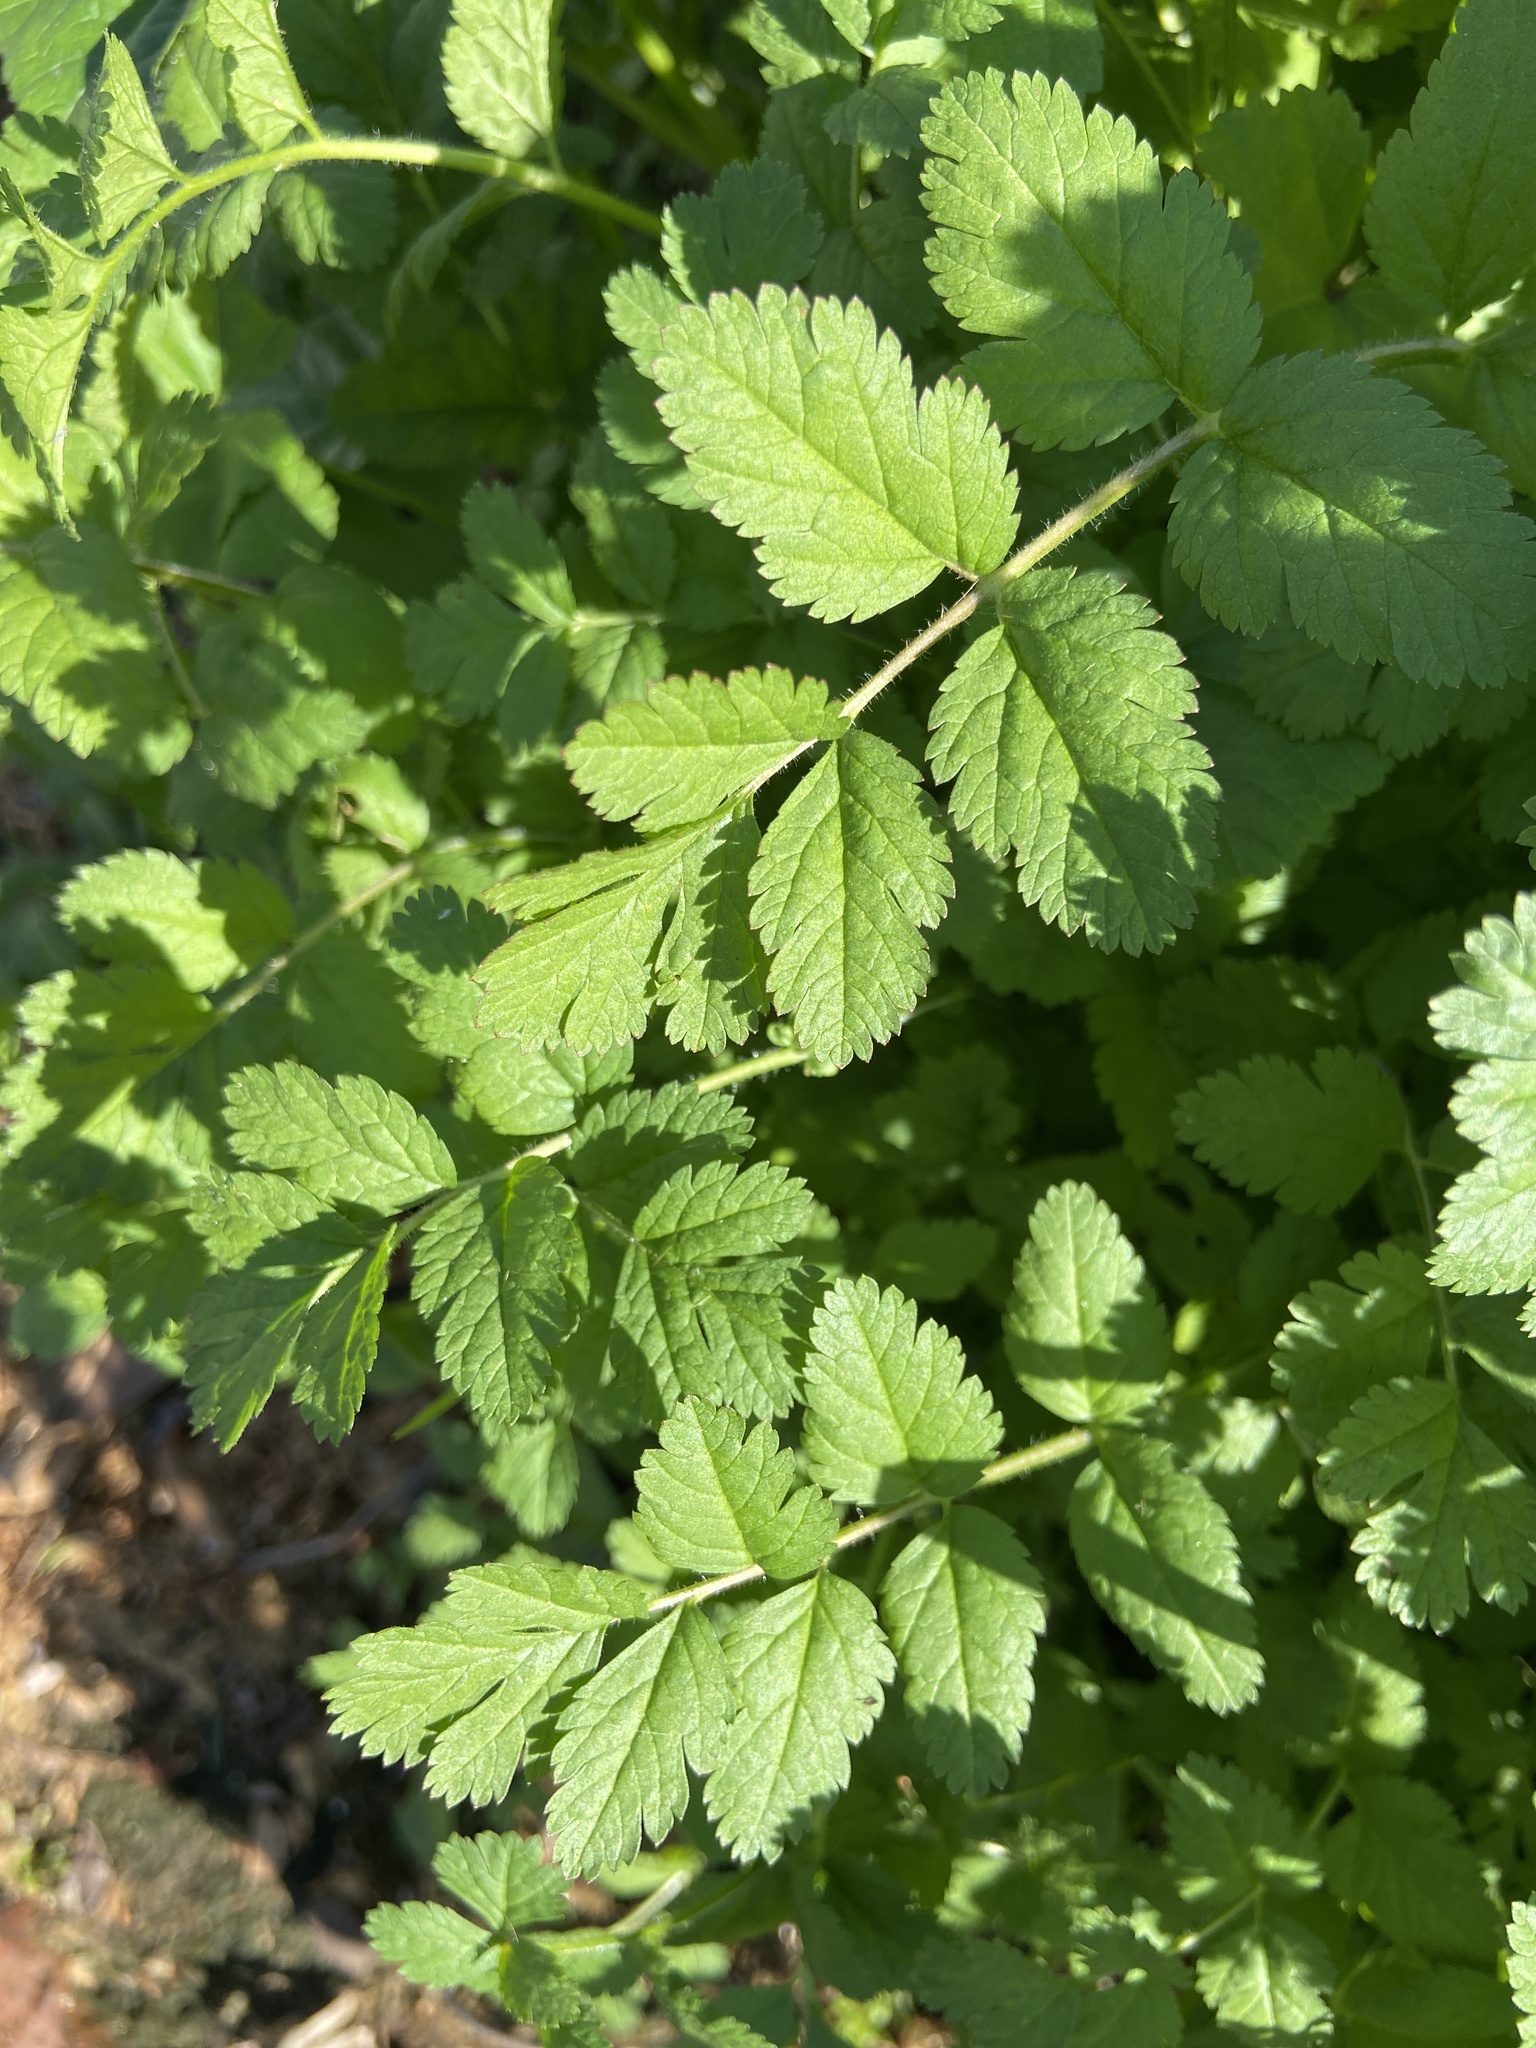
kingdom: Plantae
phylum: Tracheophyta
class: Magnoliopsida
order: Geraniales
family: Geraniaceae
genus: Erodium
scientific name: Erodium moschatum
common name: Musk stork's-bill
